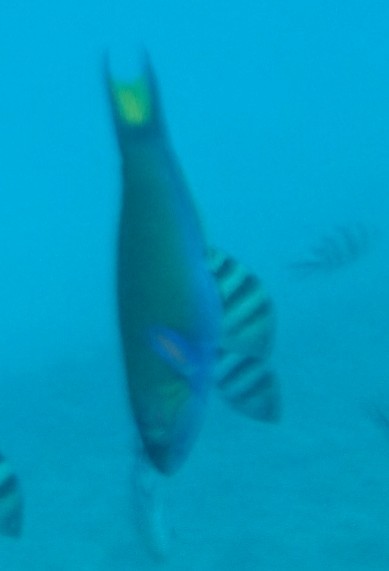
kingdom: Animalia
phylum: Chordata
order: Perciformes
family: Labridae
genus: Thalassoma
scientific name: Thalassoma lunare
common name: Blue wrasse
